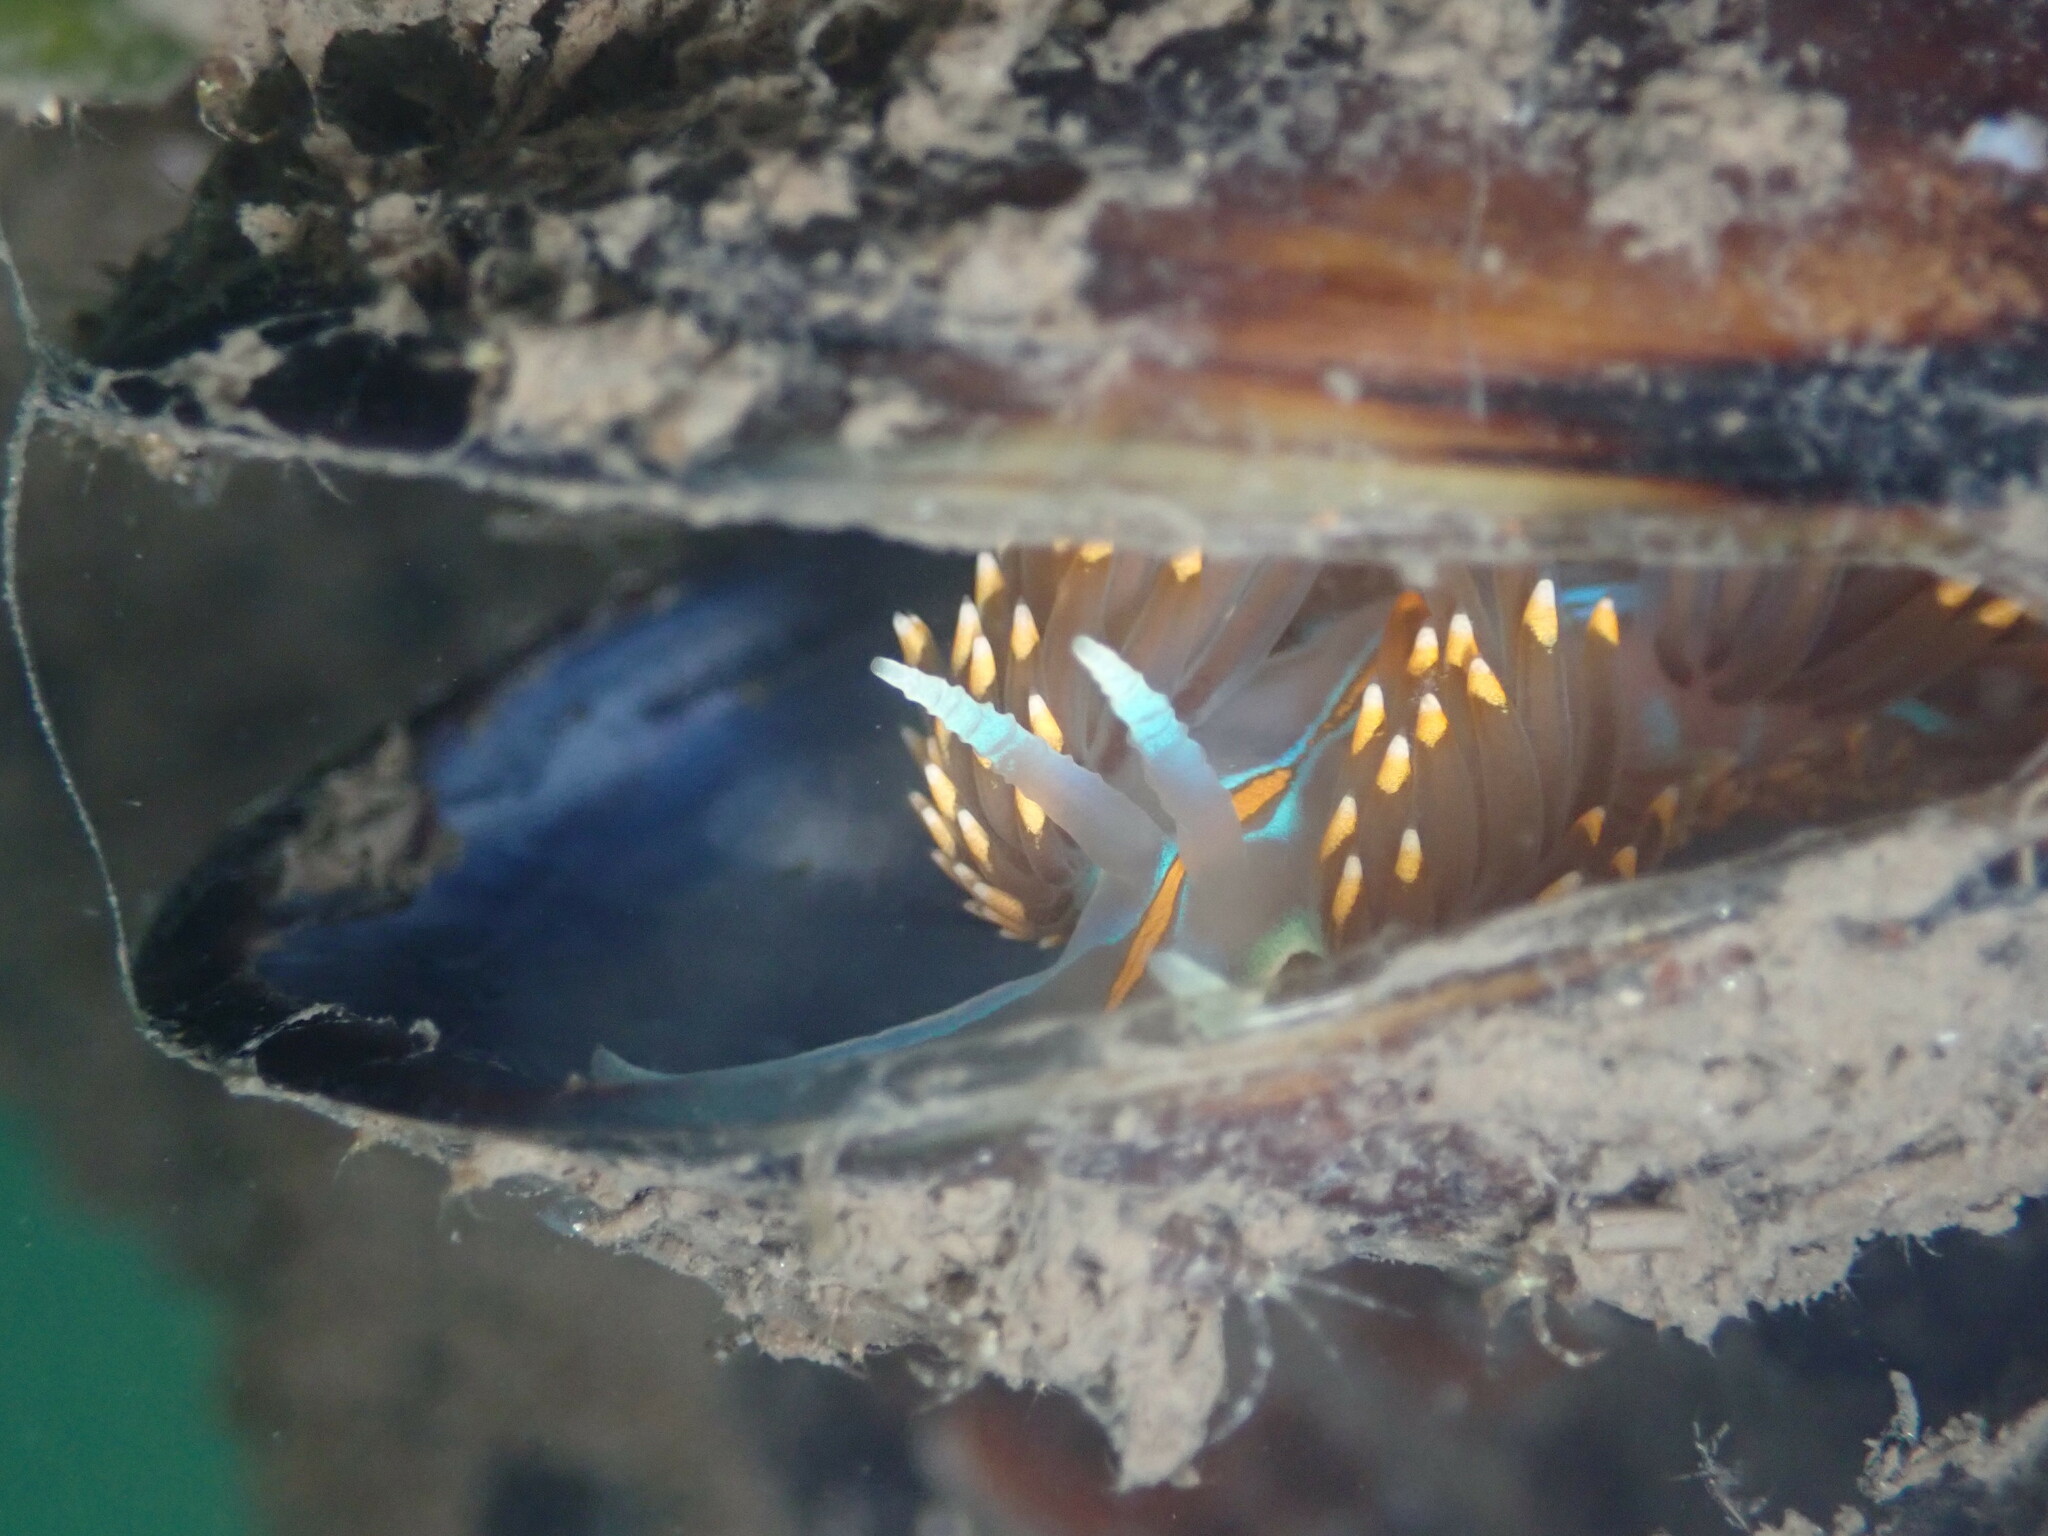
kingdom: Animalia
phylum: Mollusca
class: Gastropoda
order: Nudibranchia
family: Myrrhinidae
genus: Hermissenda
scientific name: Hermissenda opalescens
